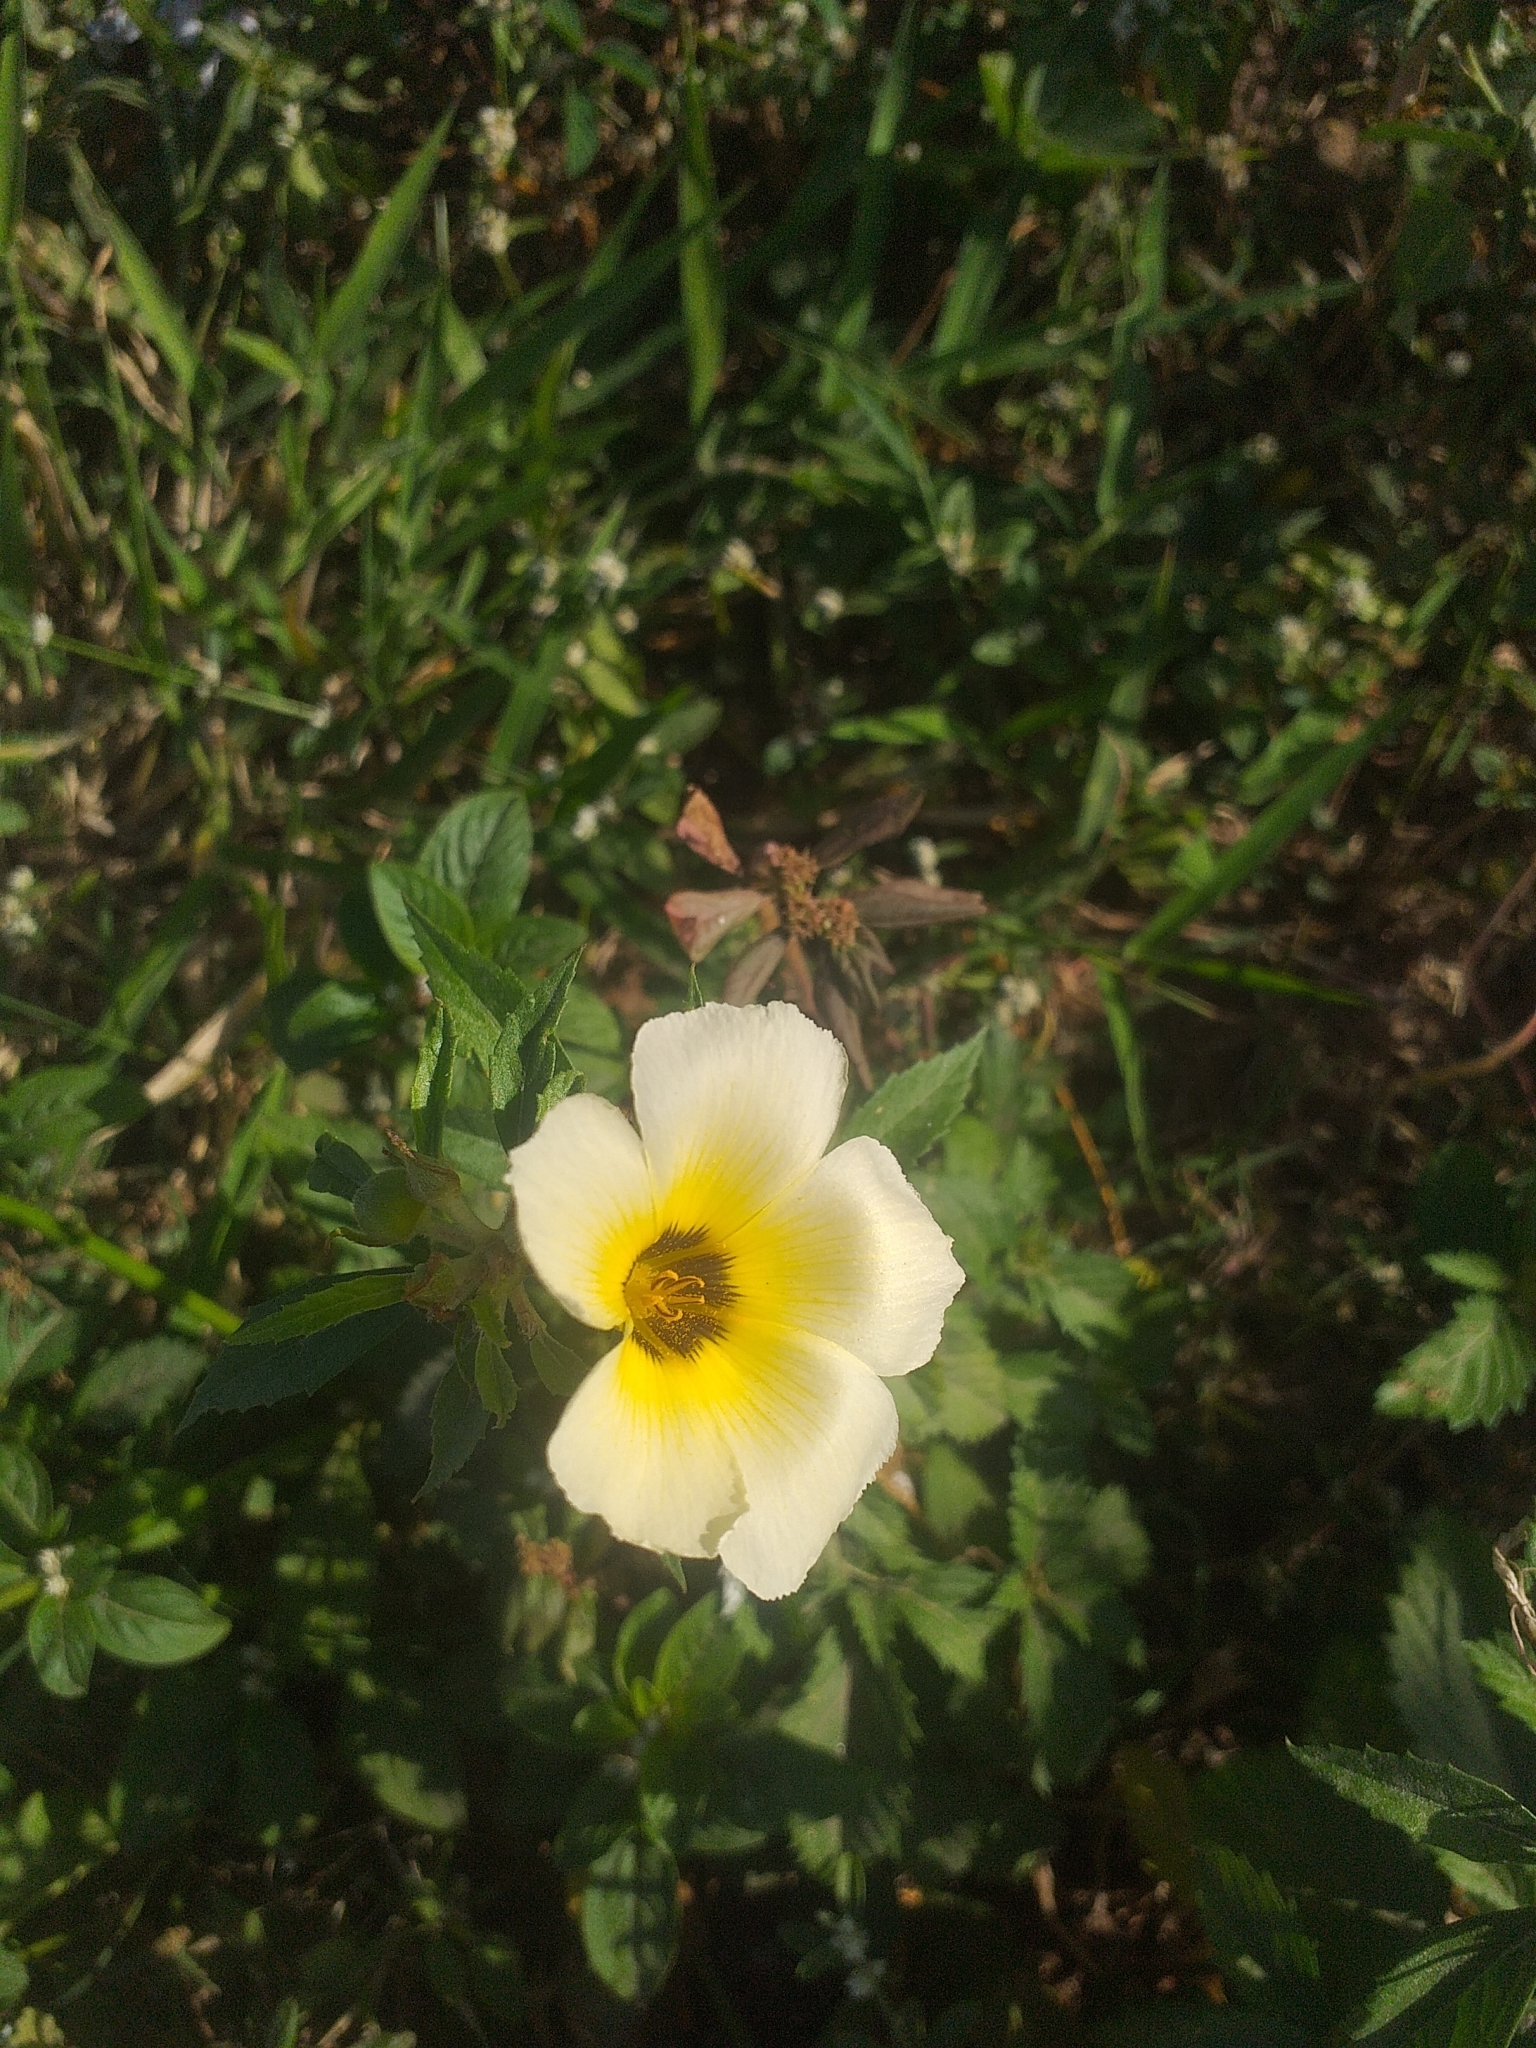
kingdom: Plantae
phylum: Tracheophyta
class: Magnoliopsida
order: Malpighiales
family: Turneraceae
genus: Turnera
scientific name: Turnera subulata
